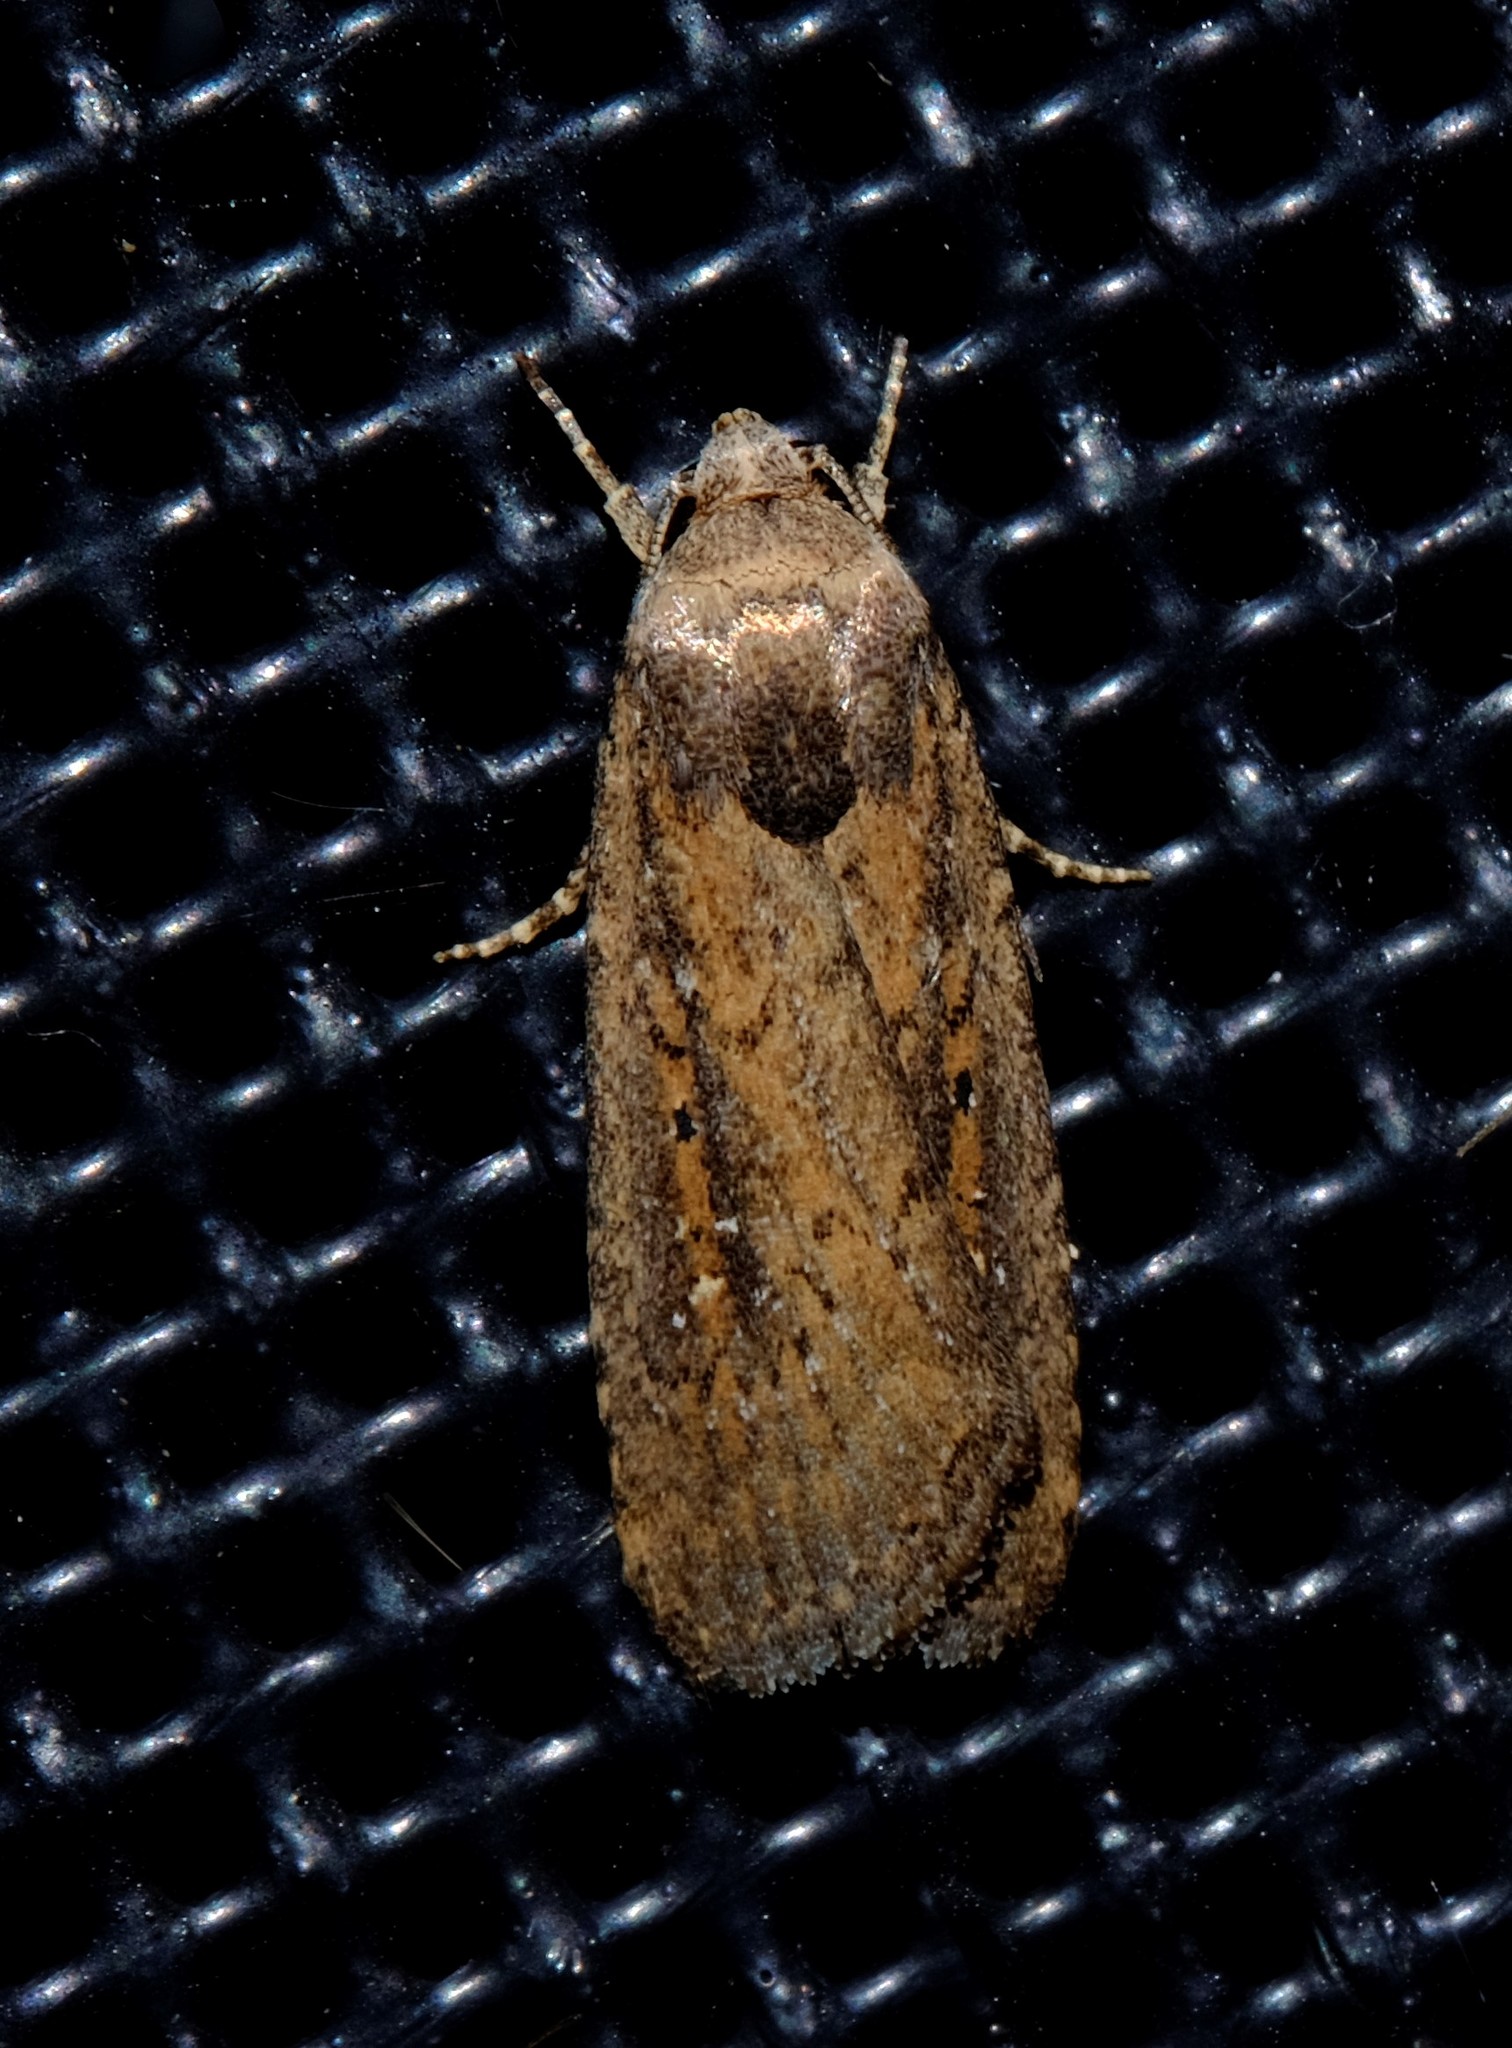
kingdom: Animalia
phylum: Arthropoda
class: Insecta
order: Lepidoptera
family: Noctuidae
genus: Athetis
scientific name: Athetis tenuis
